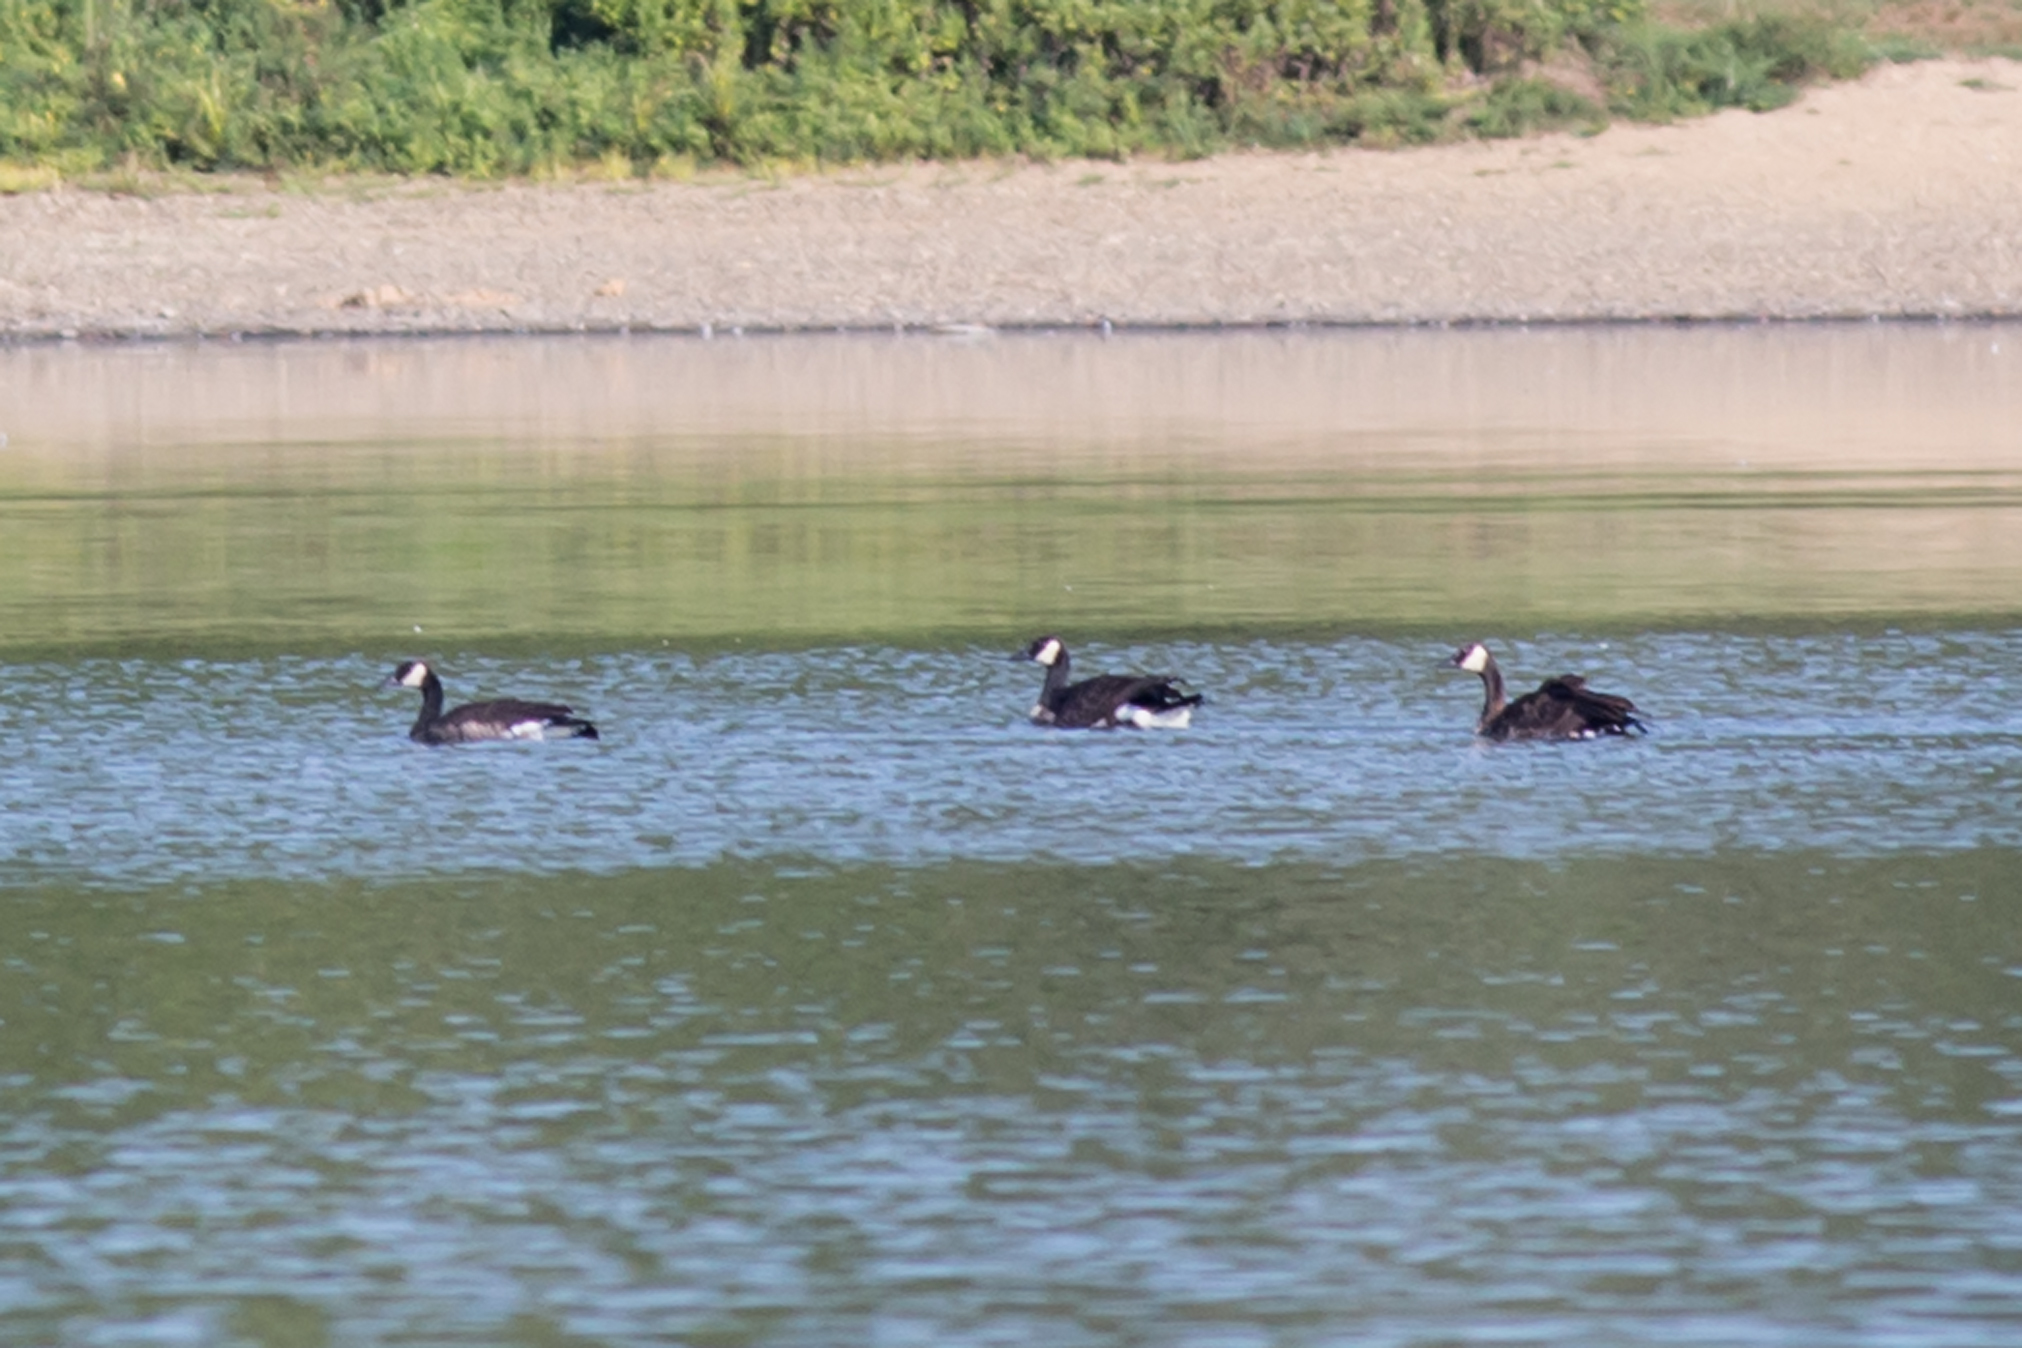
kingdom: Animalia
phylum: Chordata
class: Aves
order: Anseriformes
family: Anatidae
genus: Branta
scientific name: Branta canadensis
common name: Canada goose
